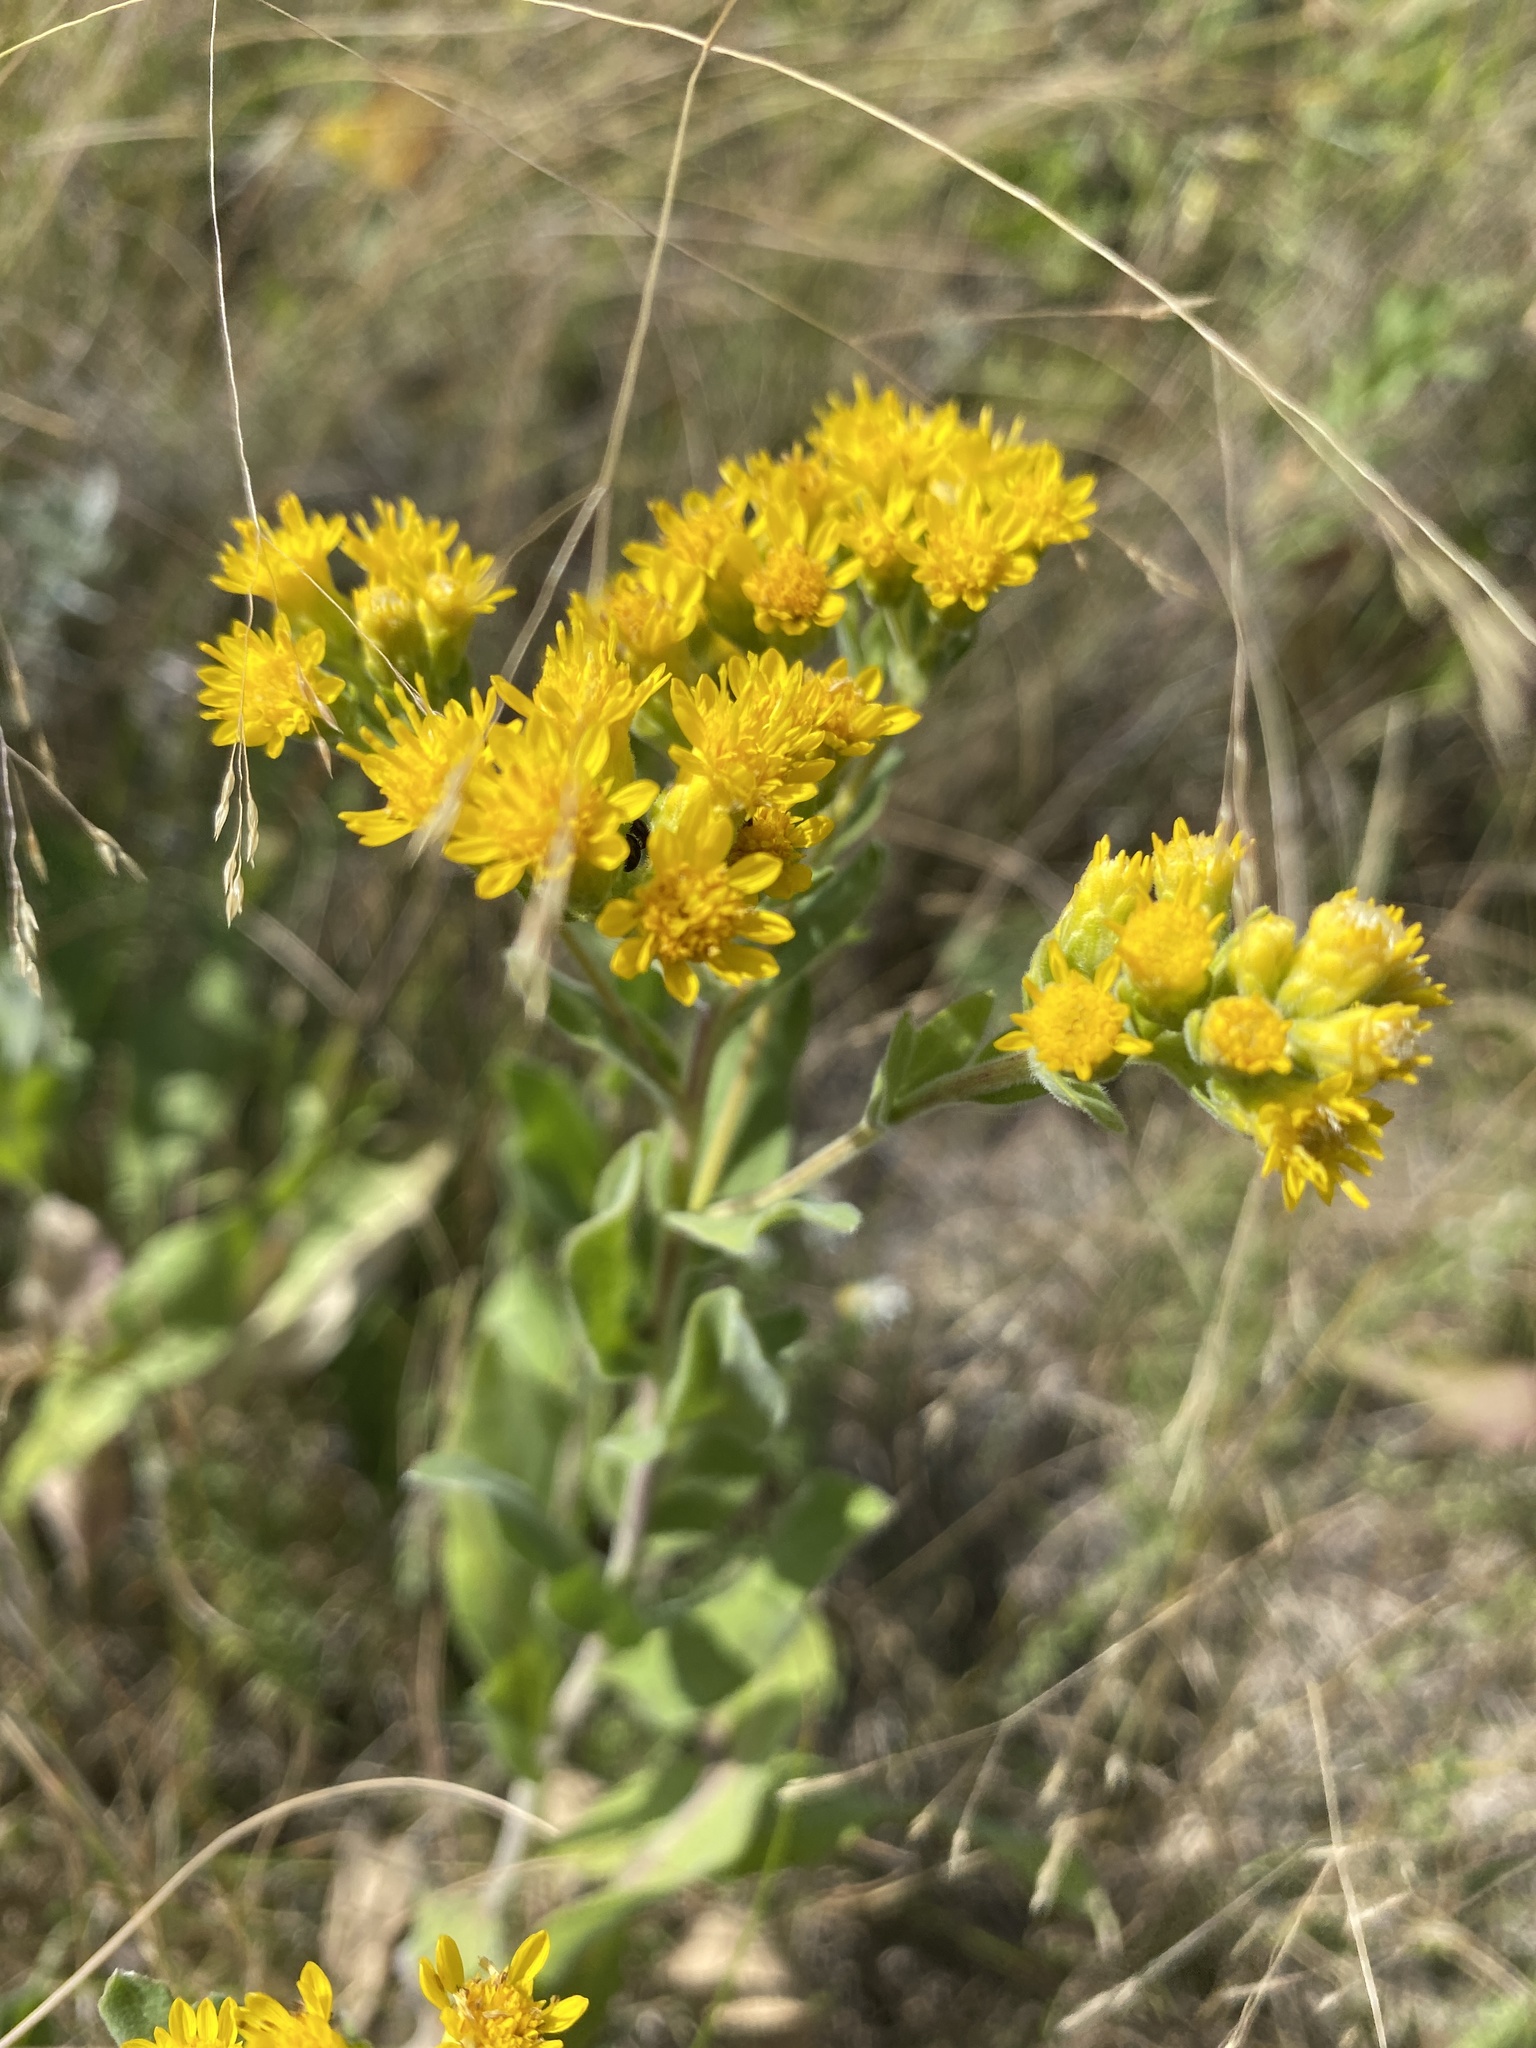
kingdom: Plantae
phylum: Tracheophyta
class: Magnoliopsida
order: Asterales
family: Asteraceae
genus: Solidago
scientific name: Solidago rigida
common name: Rigid goldenrod
